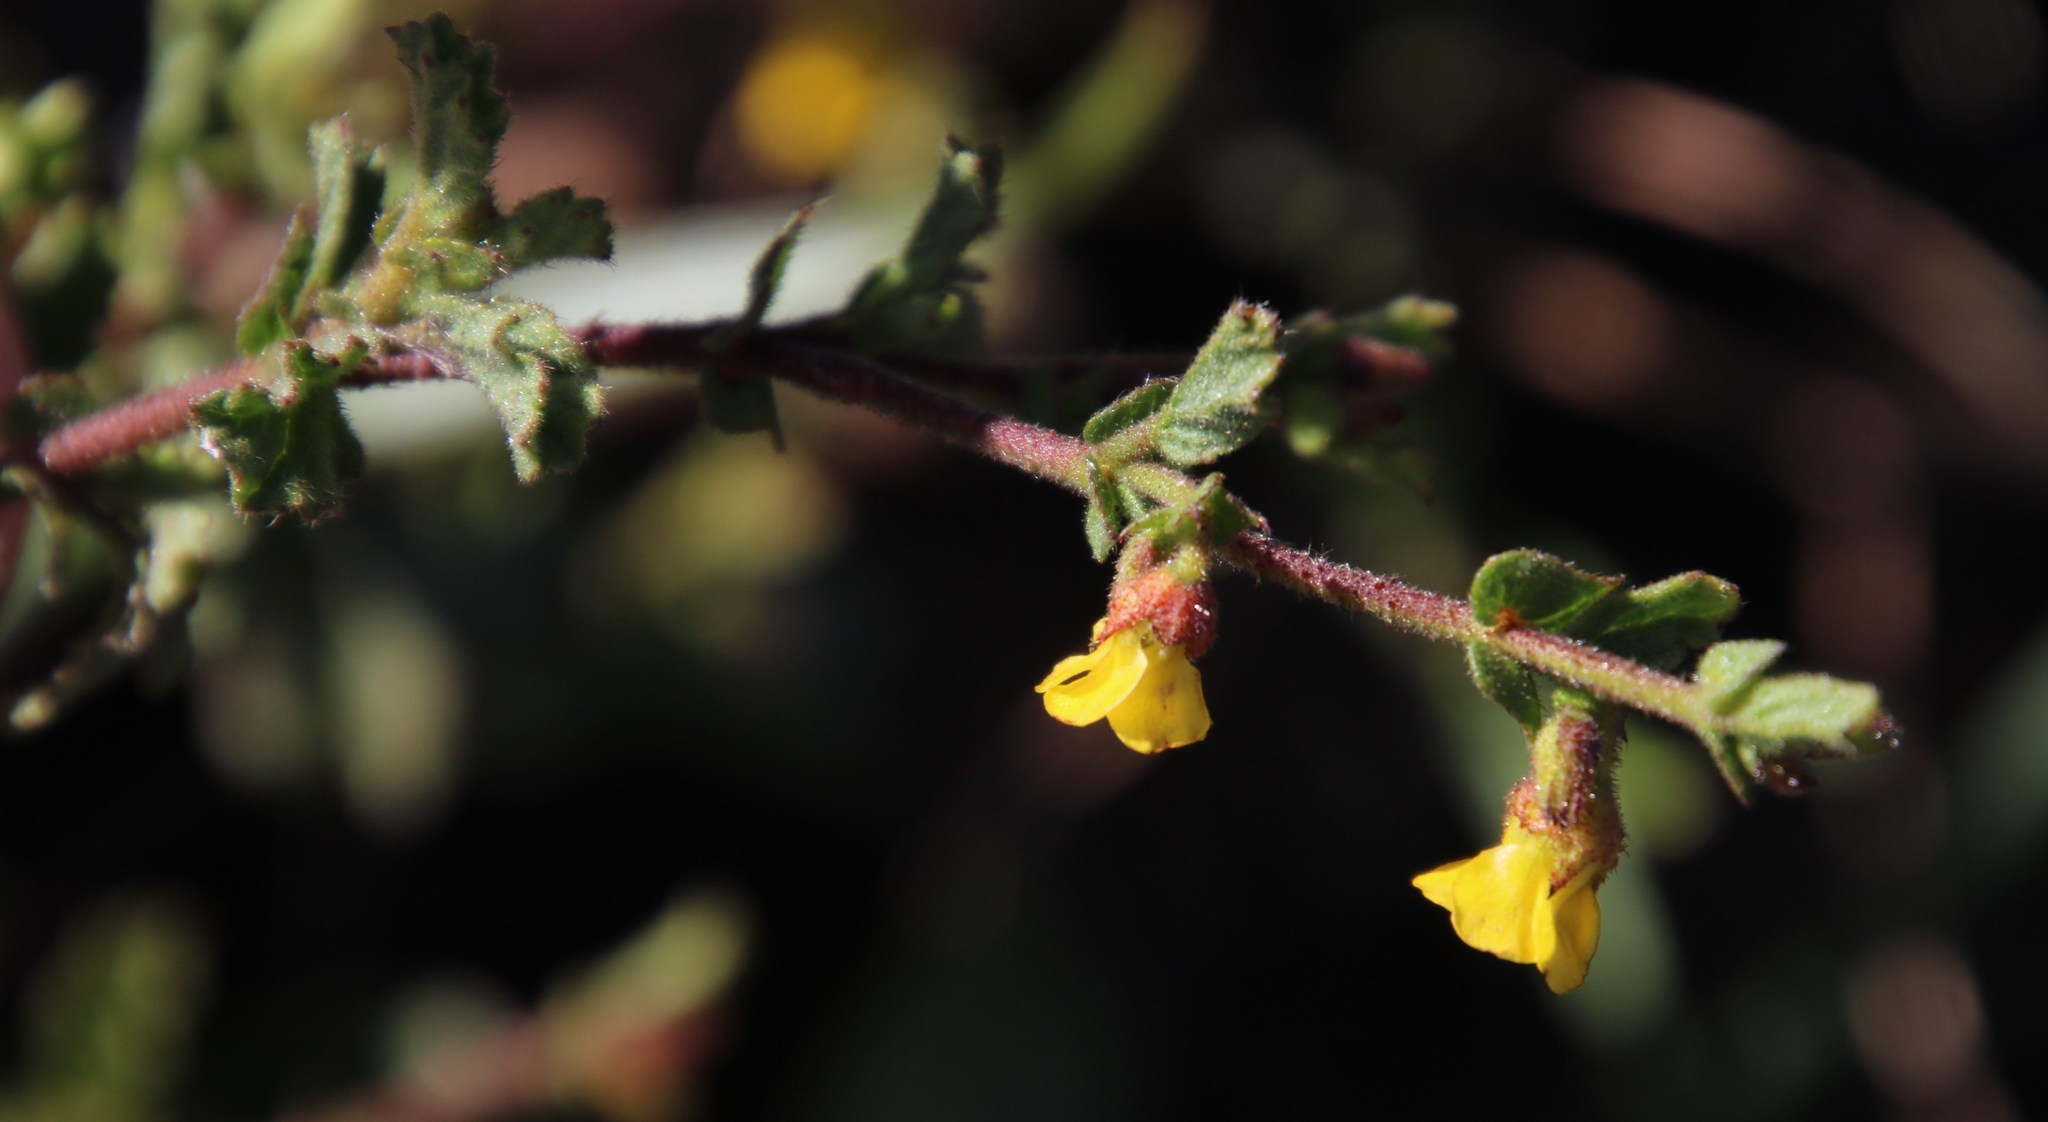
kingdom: Plantae
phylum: Tracheophyta
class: Magnoliopsida
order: Malvales
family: Malvaceae
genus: Hermannia
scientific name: Hermannia micrantha
